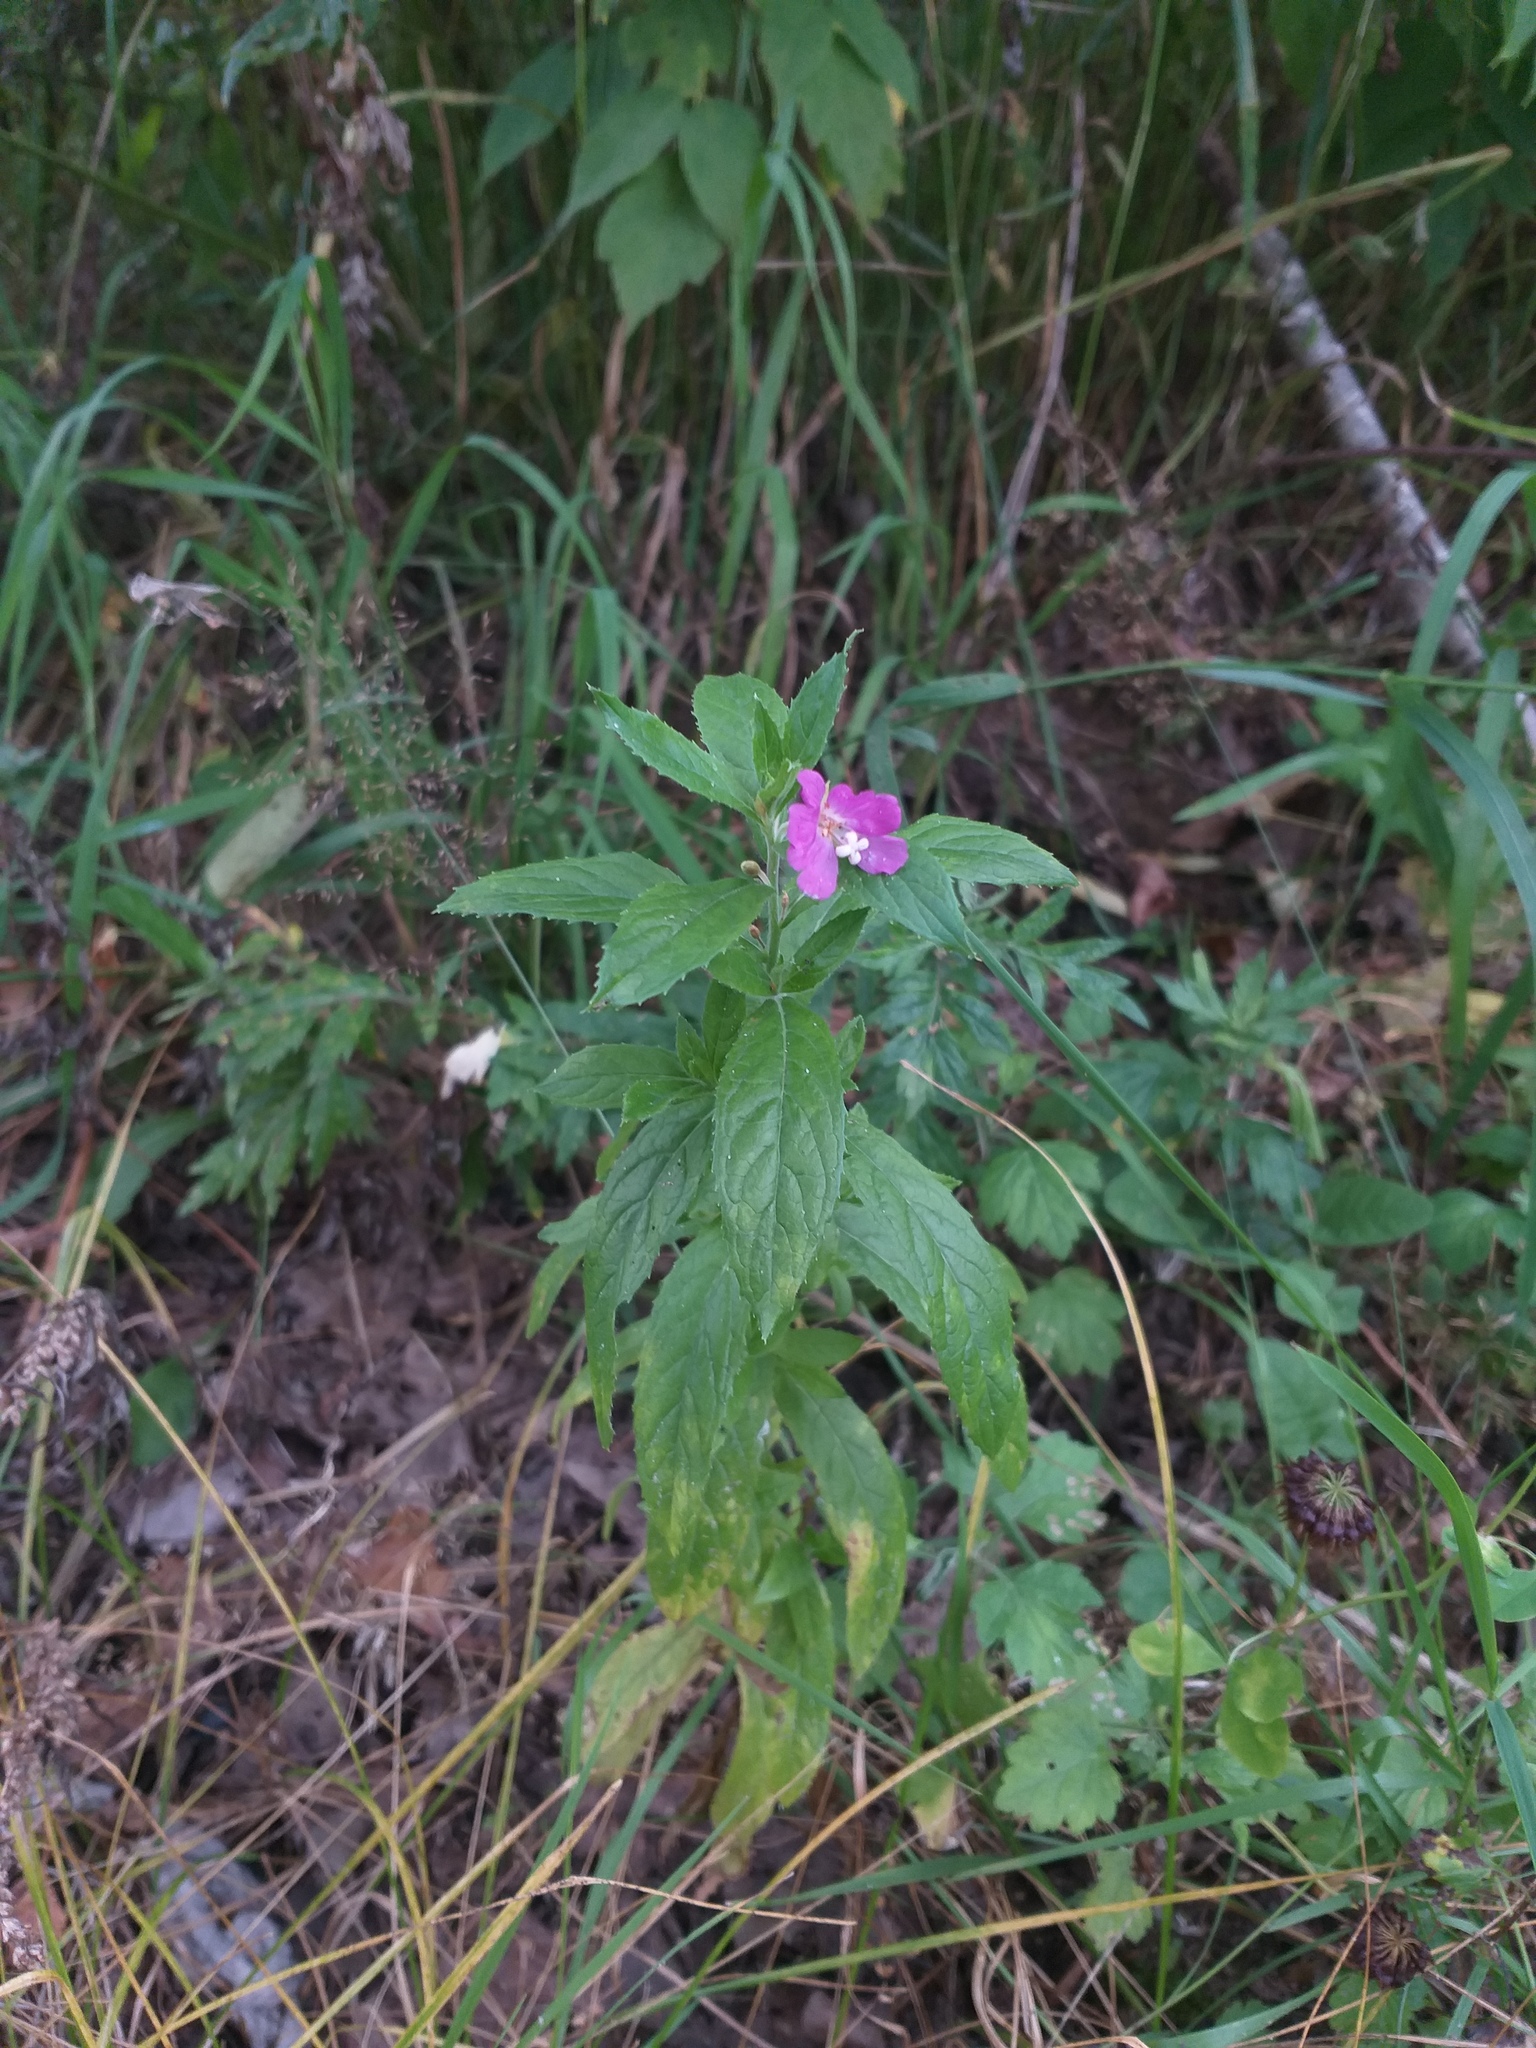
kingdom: Plantae
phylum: Tracheophyta
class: Magnoliopsida
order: Myrtales
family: Onagraceae
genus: Epilobium
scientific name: Epilobium hirsutum
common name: Great willowherb
